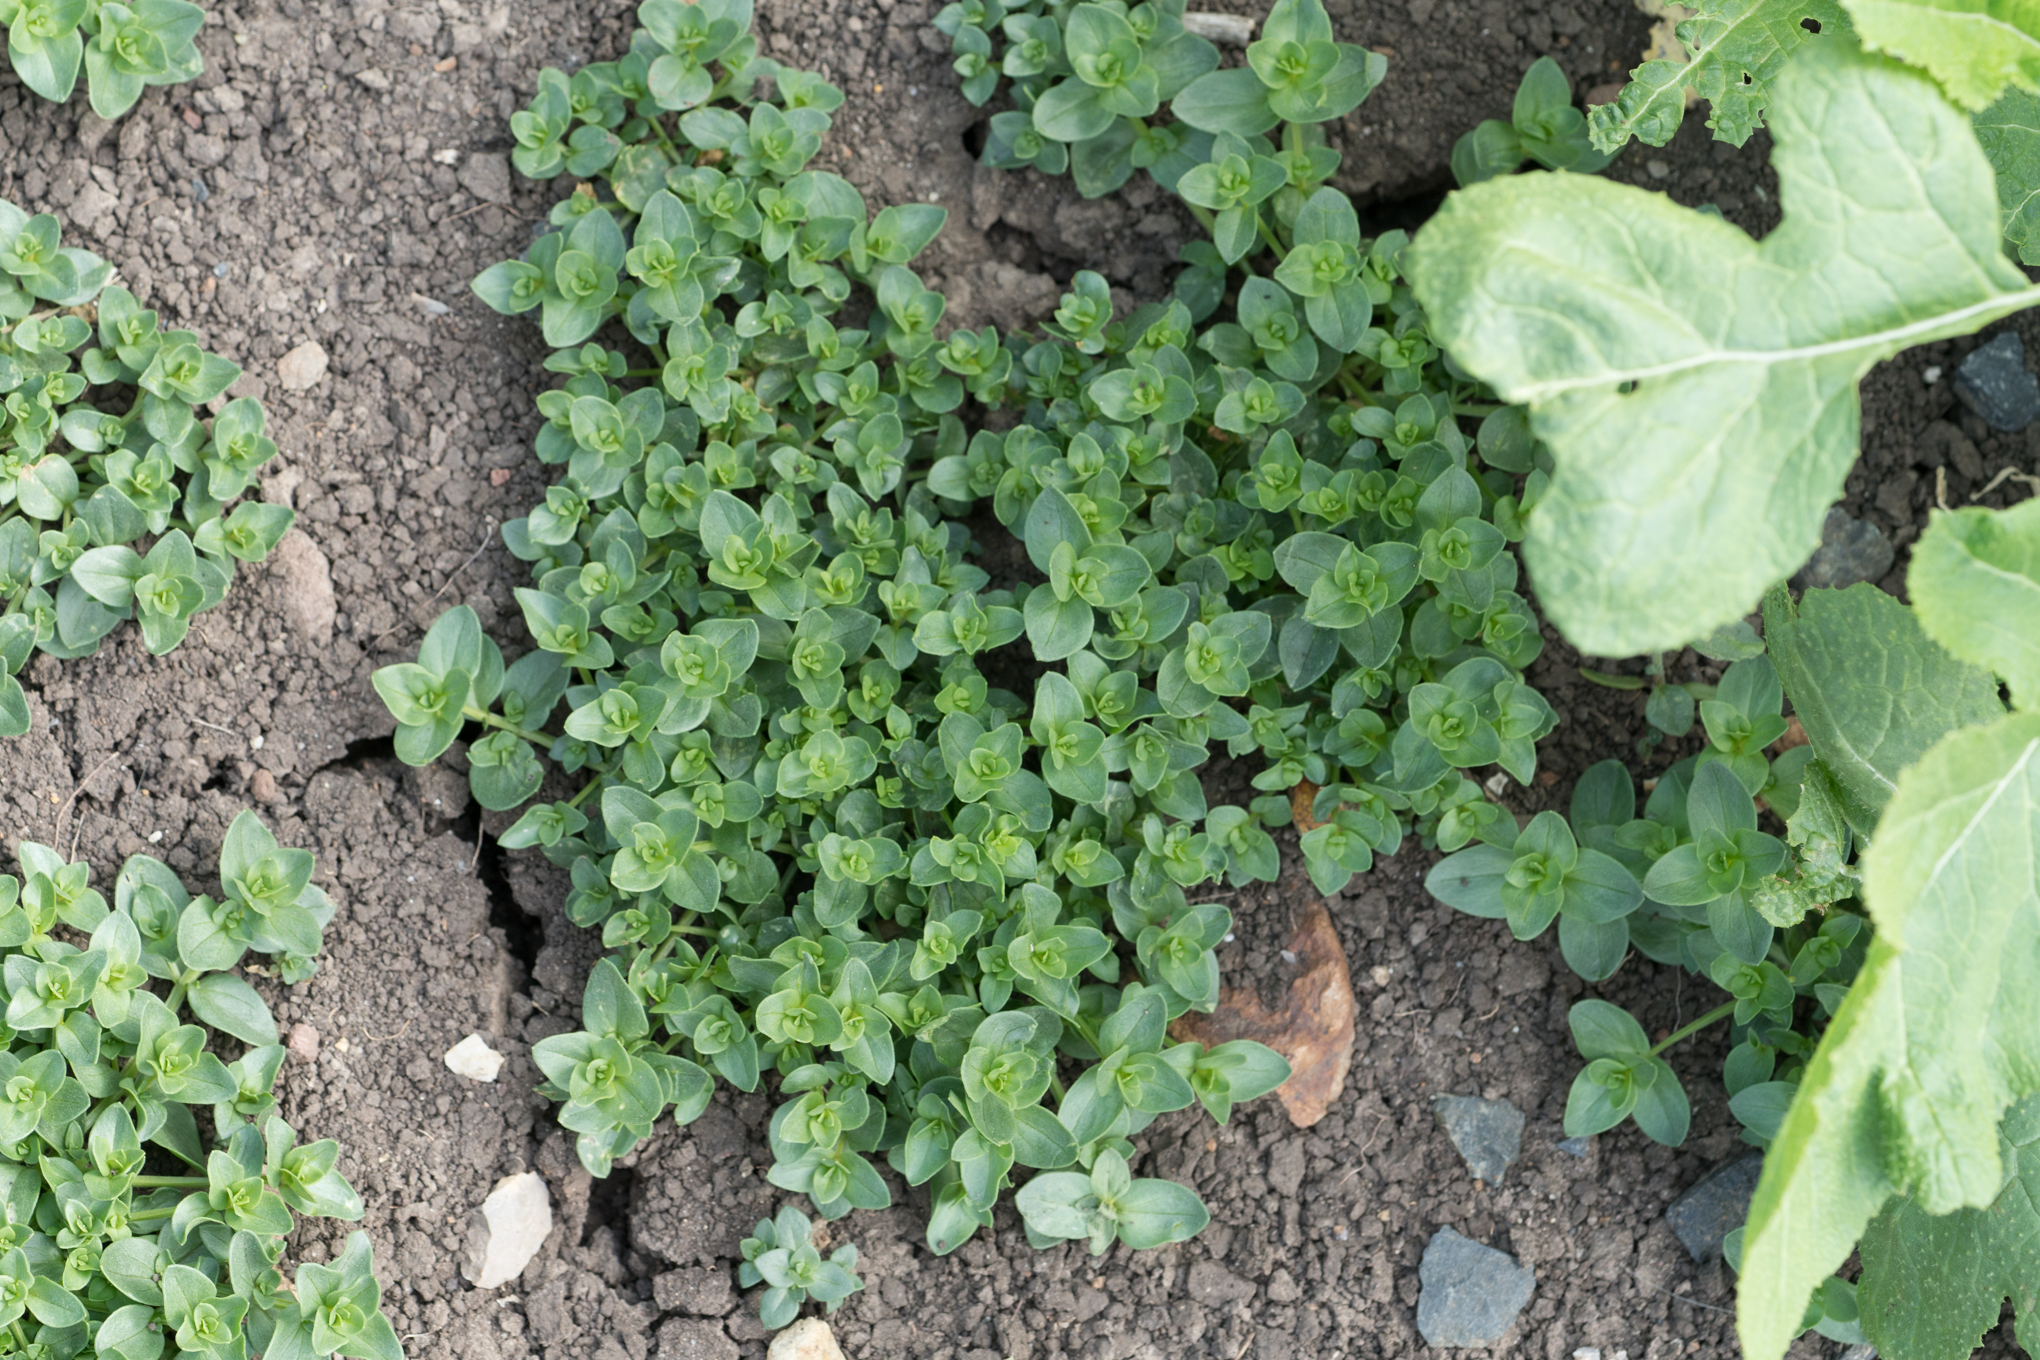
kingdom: Plantae
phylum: Tracheophyta
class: Magnoliopsida
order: Ericales
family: Primulaceae
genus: Lysimachia
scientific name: Lysimachia arvensis
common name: Scarlet pimpernel
